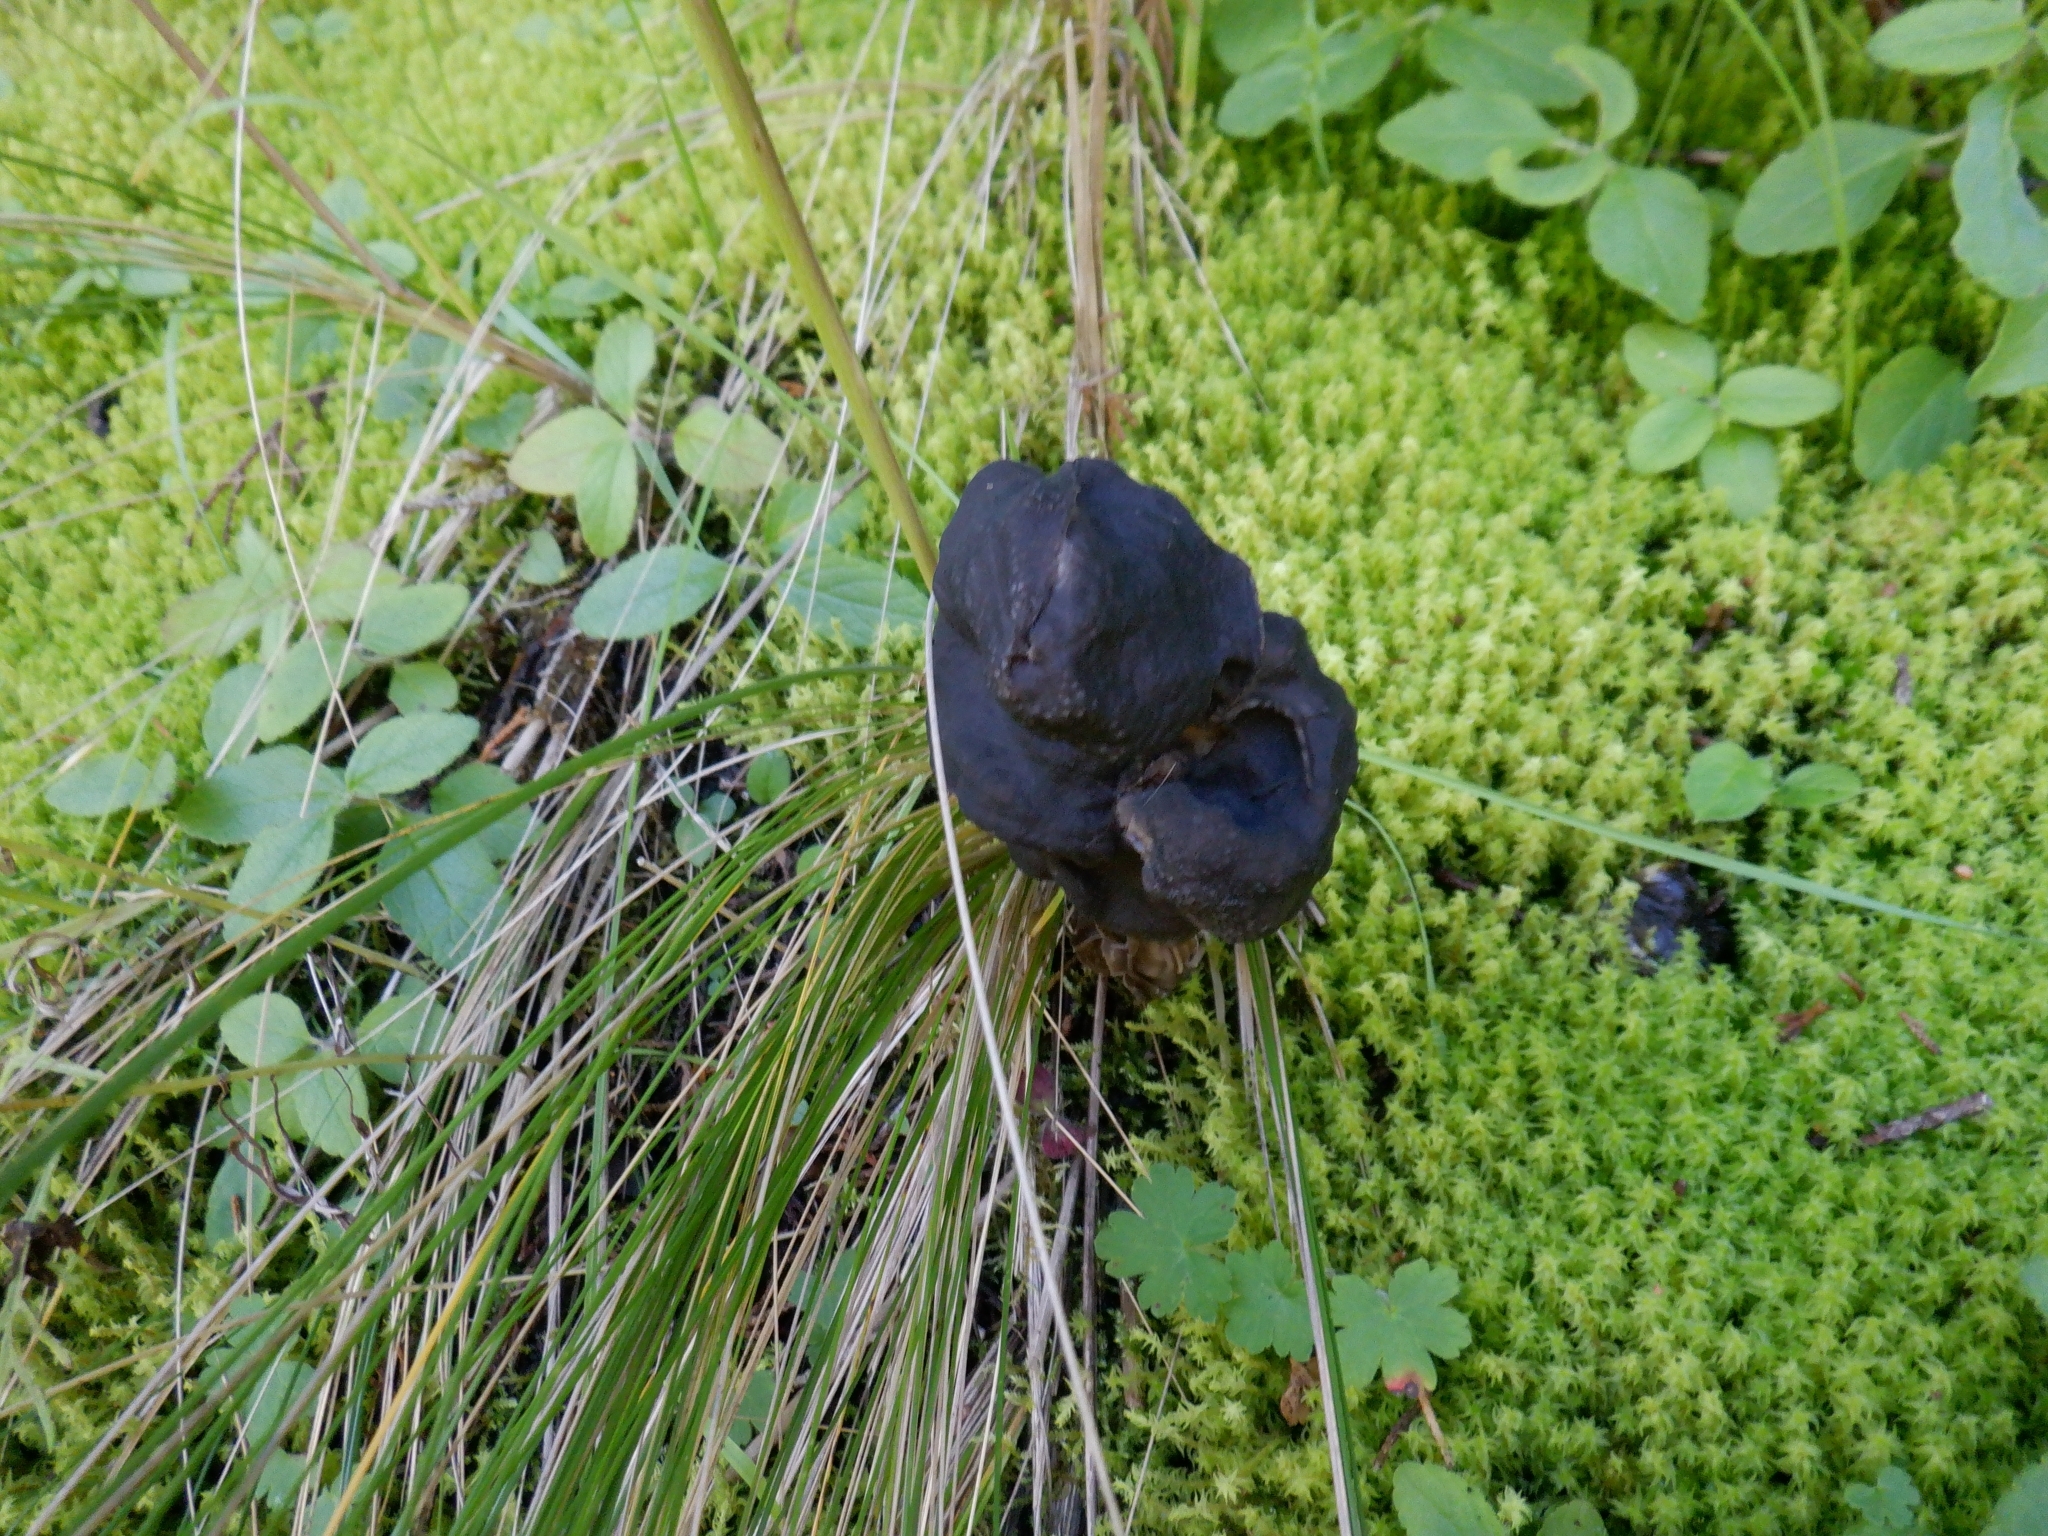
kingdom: Fungi
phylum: Ascomycota
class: Pezizomycetes
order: Pezizales
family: Helvellaceae
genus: Helvella
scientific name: Helvella vespertina
